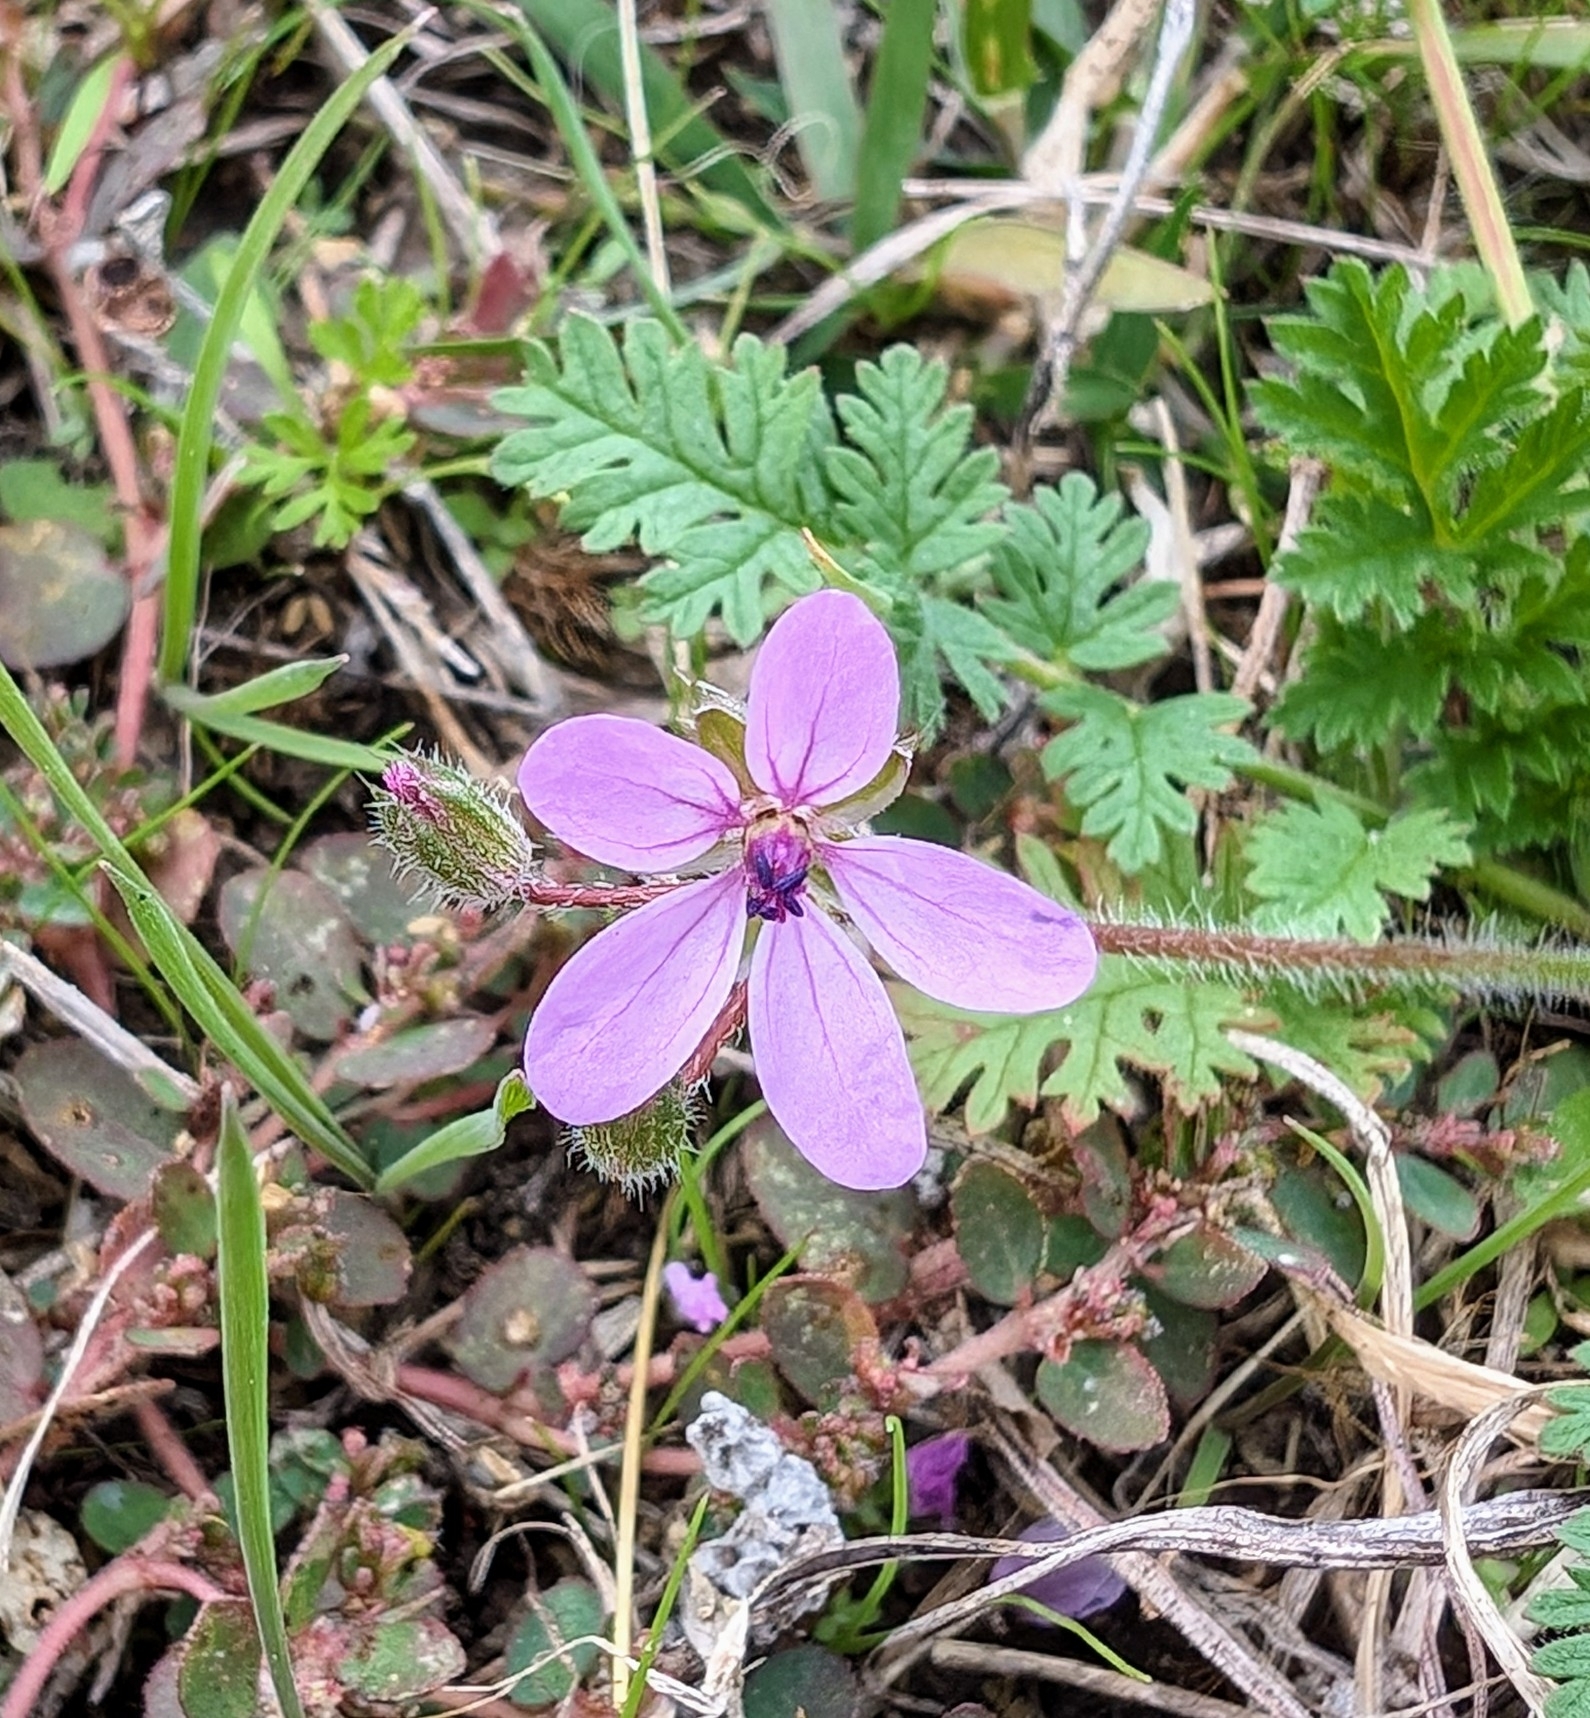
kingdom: Plantae
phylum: Tracheophyta
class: Magnoliopsida
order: Geraniales
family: Geraniaceae
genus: Erodium
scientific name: Erodium cicutarium
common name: Common stork's-bill
